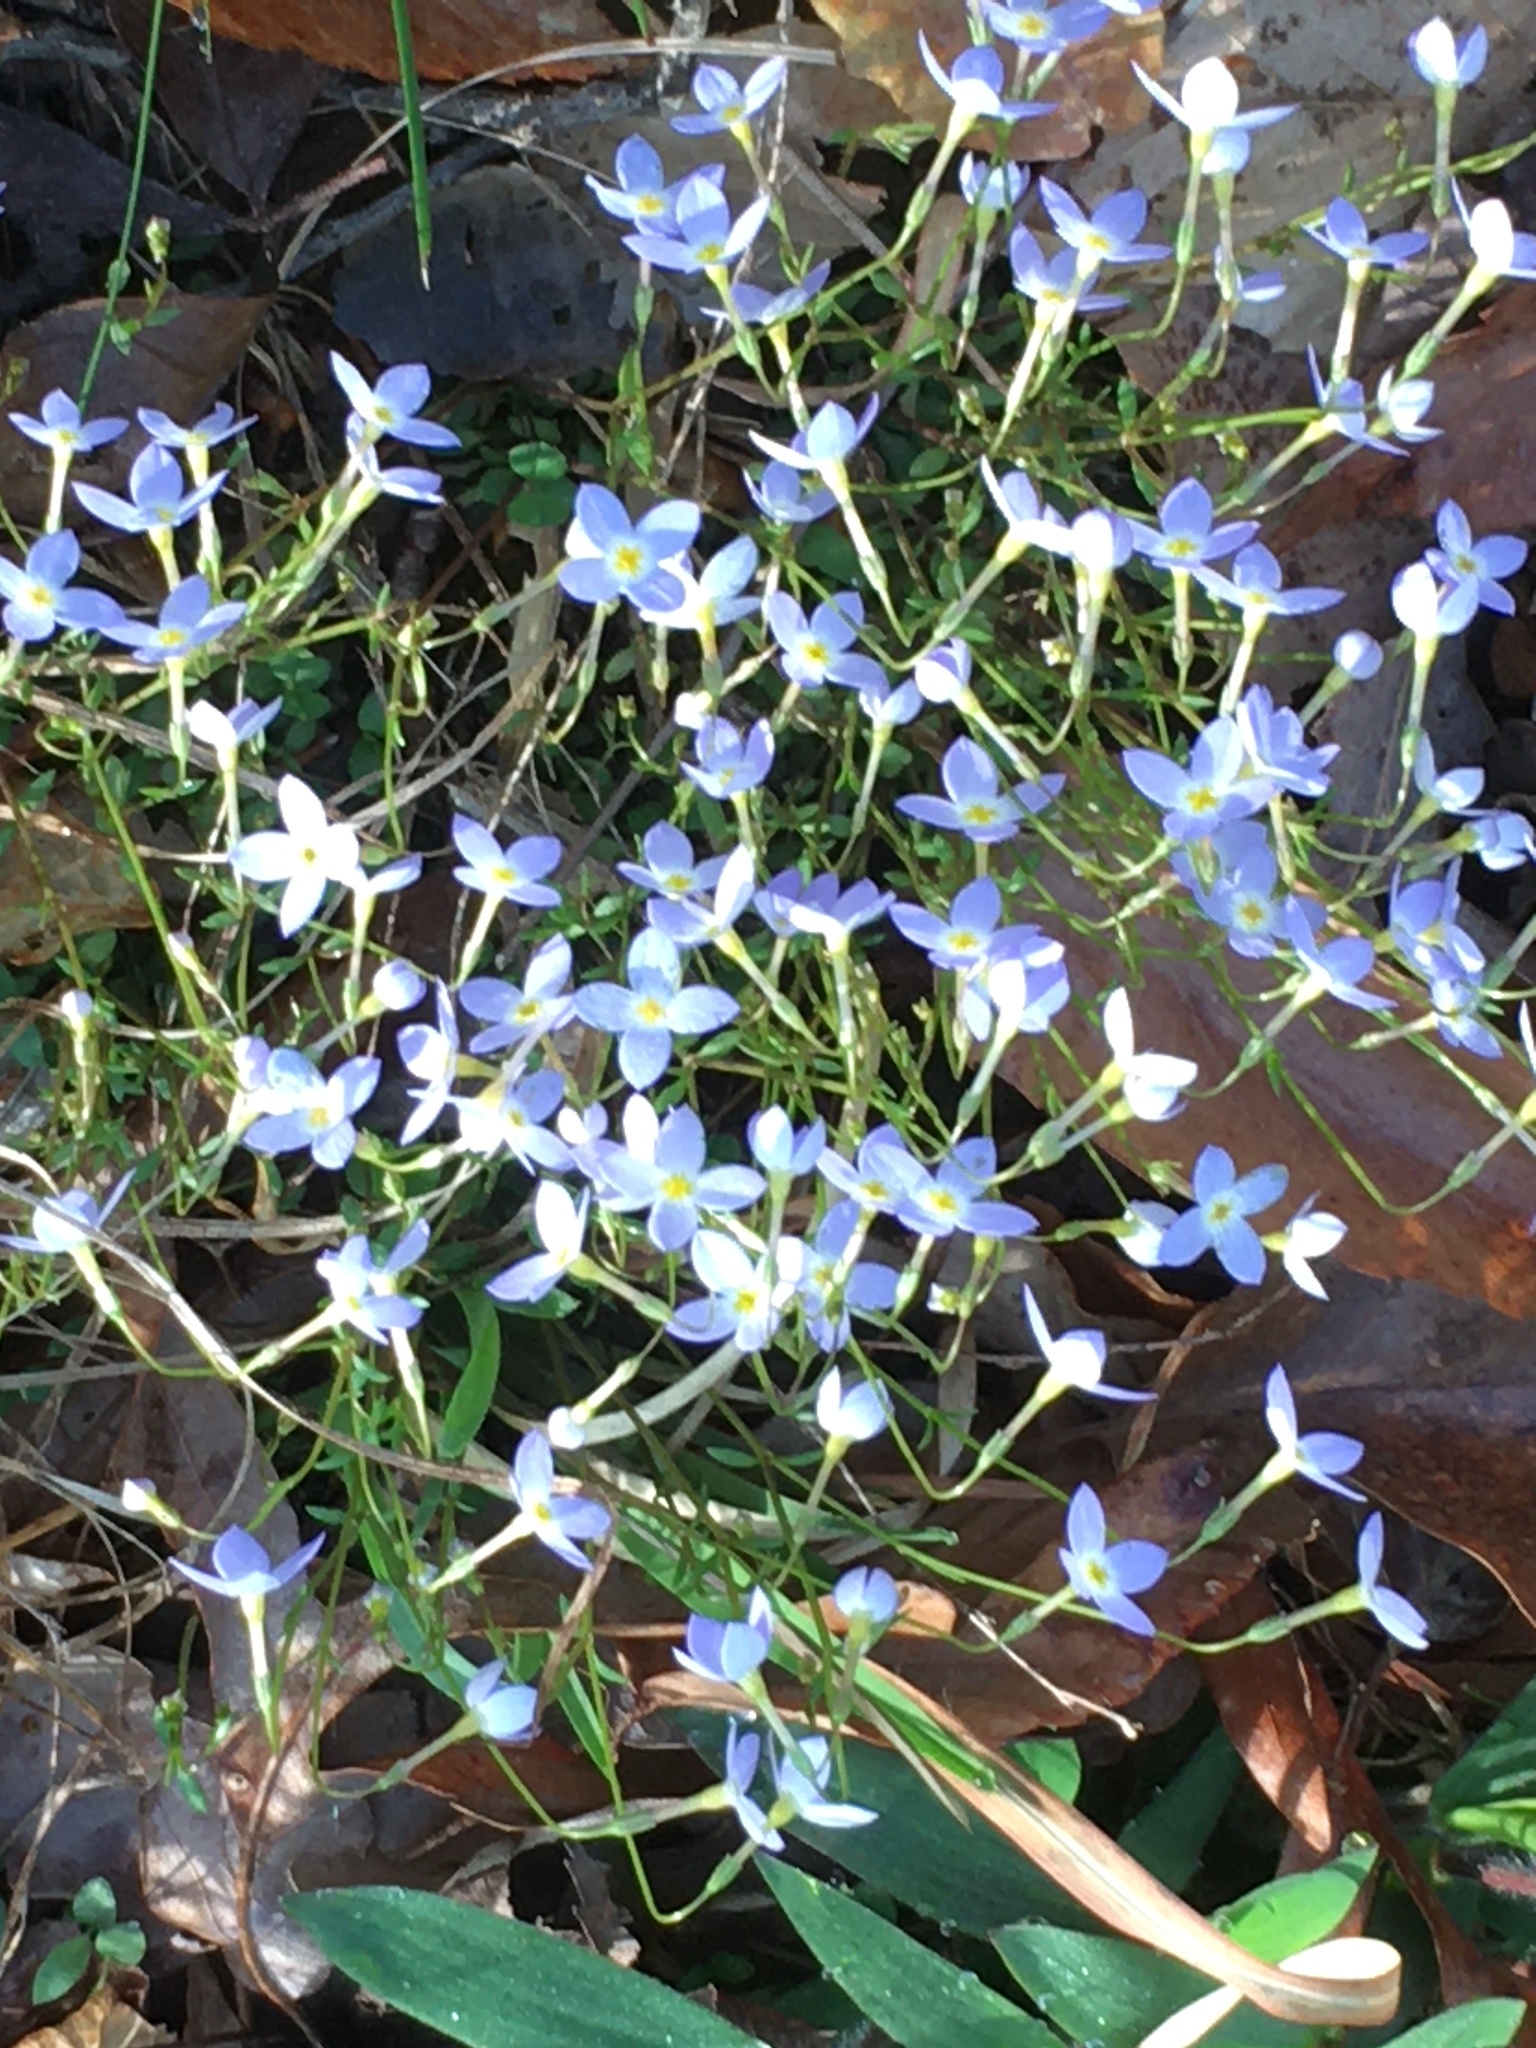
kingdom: Plantae
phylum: Tracheophyta
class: Magnoliopsida
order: Gentianales
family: Rubiaceae
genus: Houstonia
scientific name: Houstonia caerulea
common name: Bluets
